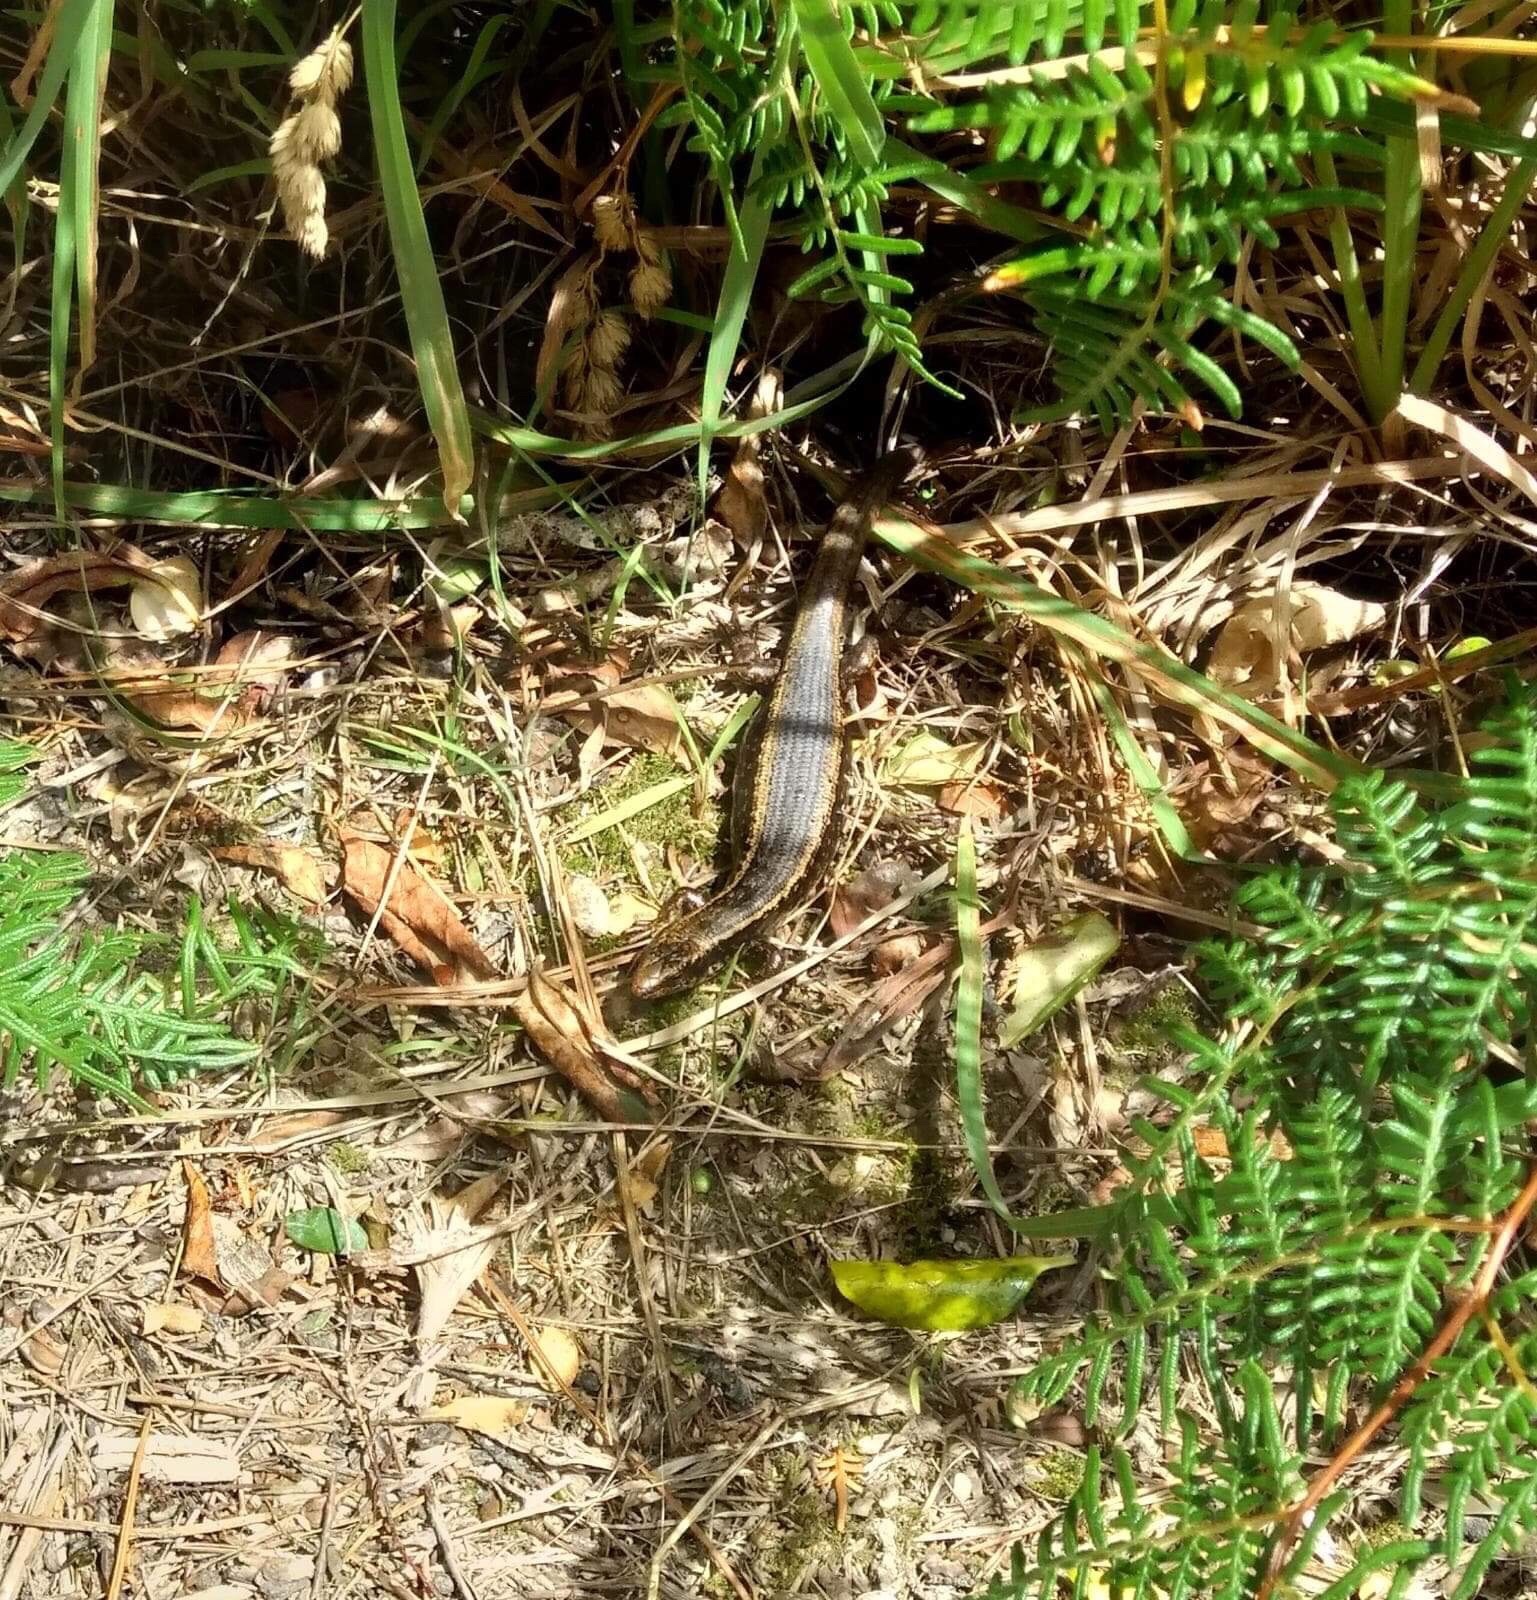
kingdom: Animalia
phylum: Chordata
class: Squamata
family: Scincidae
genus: Oligosoma
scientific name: Oligosoma kokowai
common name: Northern spotted skink
